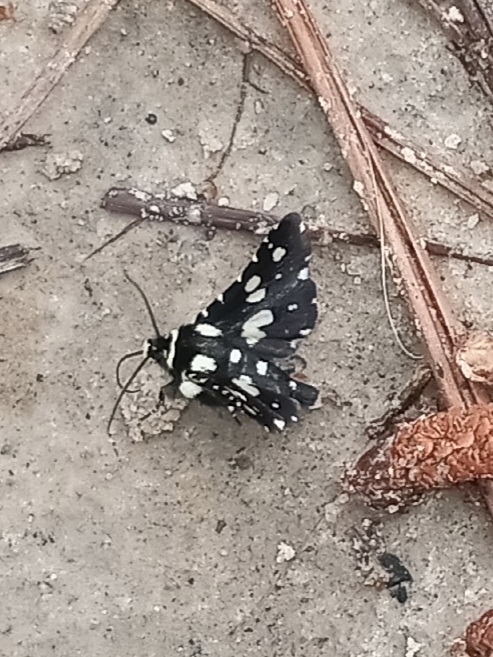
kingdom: Animalia
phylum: Arthropoda
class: Insecta
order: Lepidoptera
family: Thyrididae
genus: Pseudothyris
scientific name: Pseudothyris sepulchralis
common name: Mournful thyris moth
